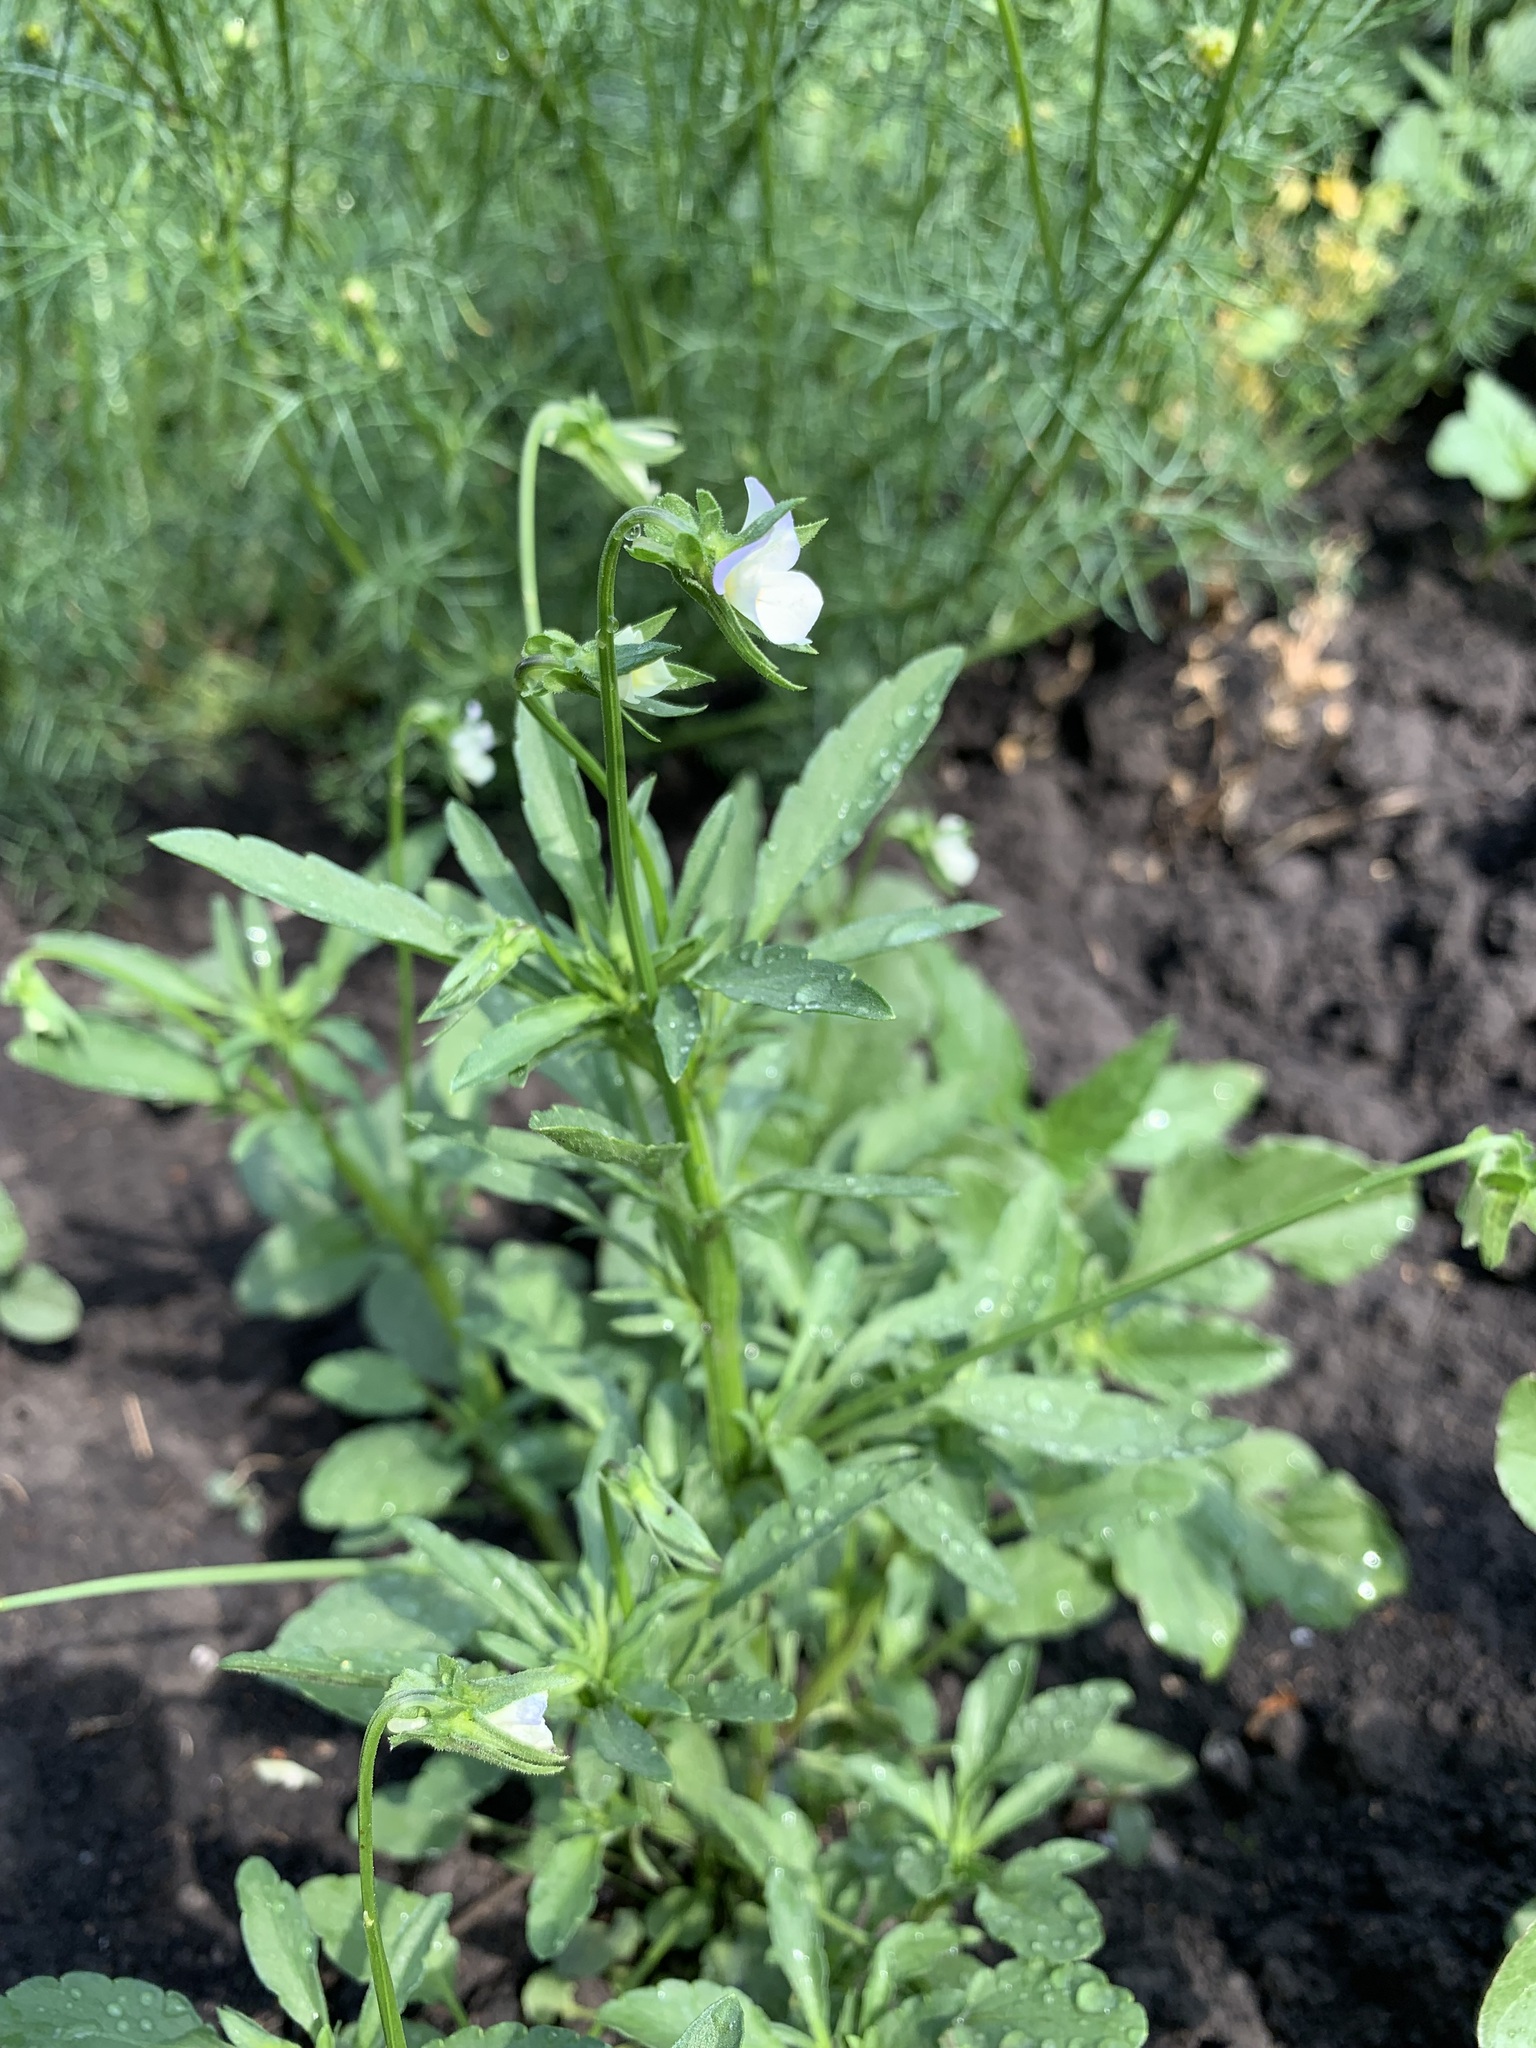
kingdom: Plantae
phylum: Tracheophyta
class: Magnoliopsida
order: Malpighiales
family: Violaceae
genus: Viola
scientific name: Viola arvensis
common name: Field pansy
